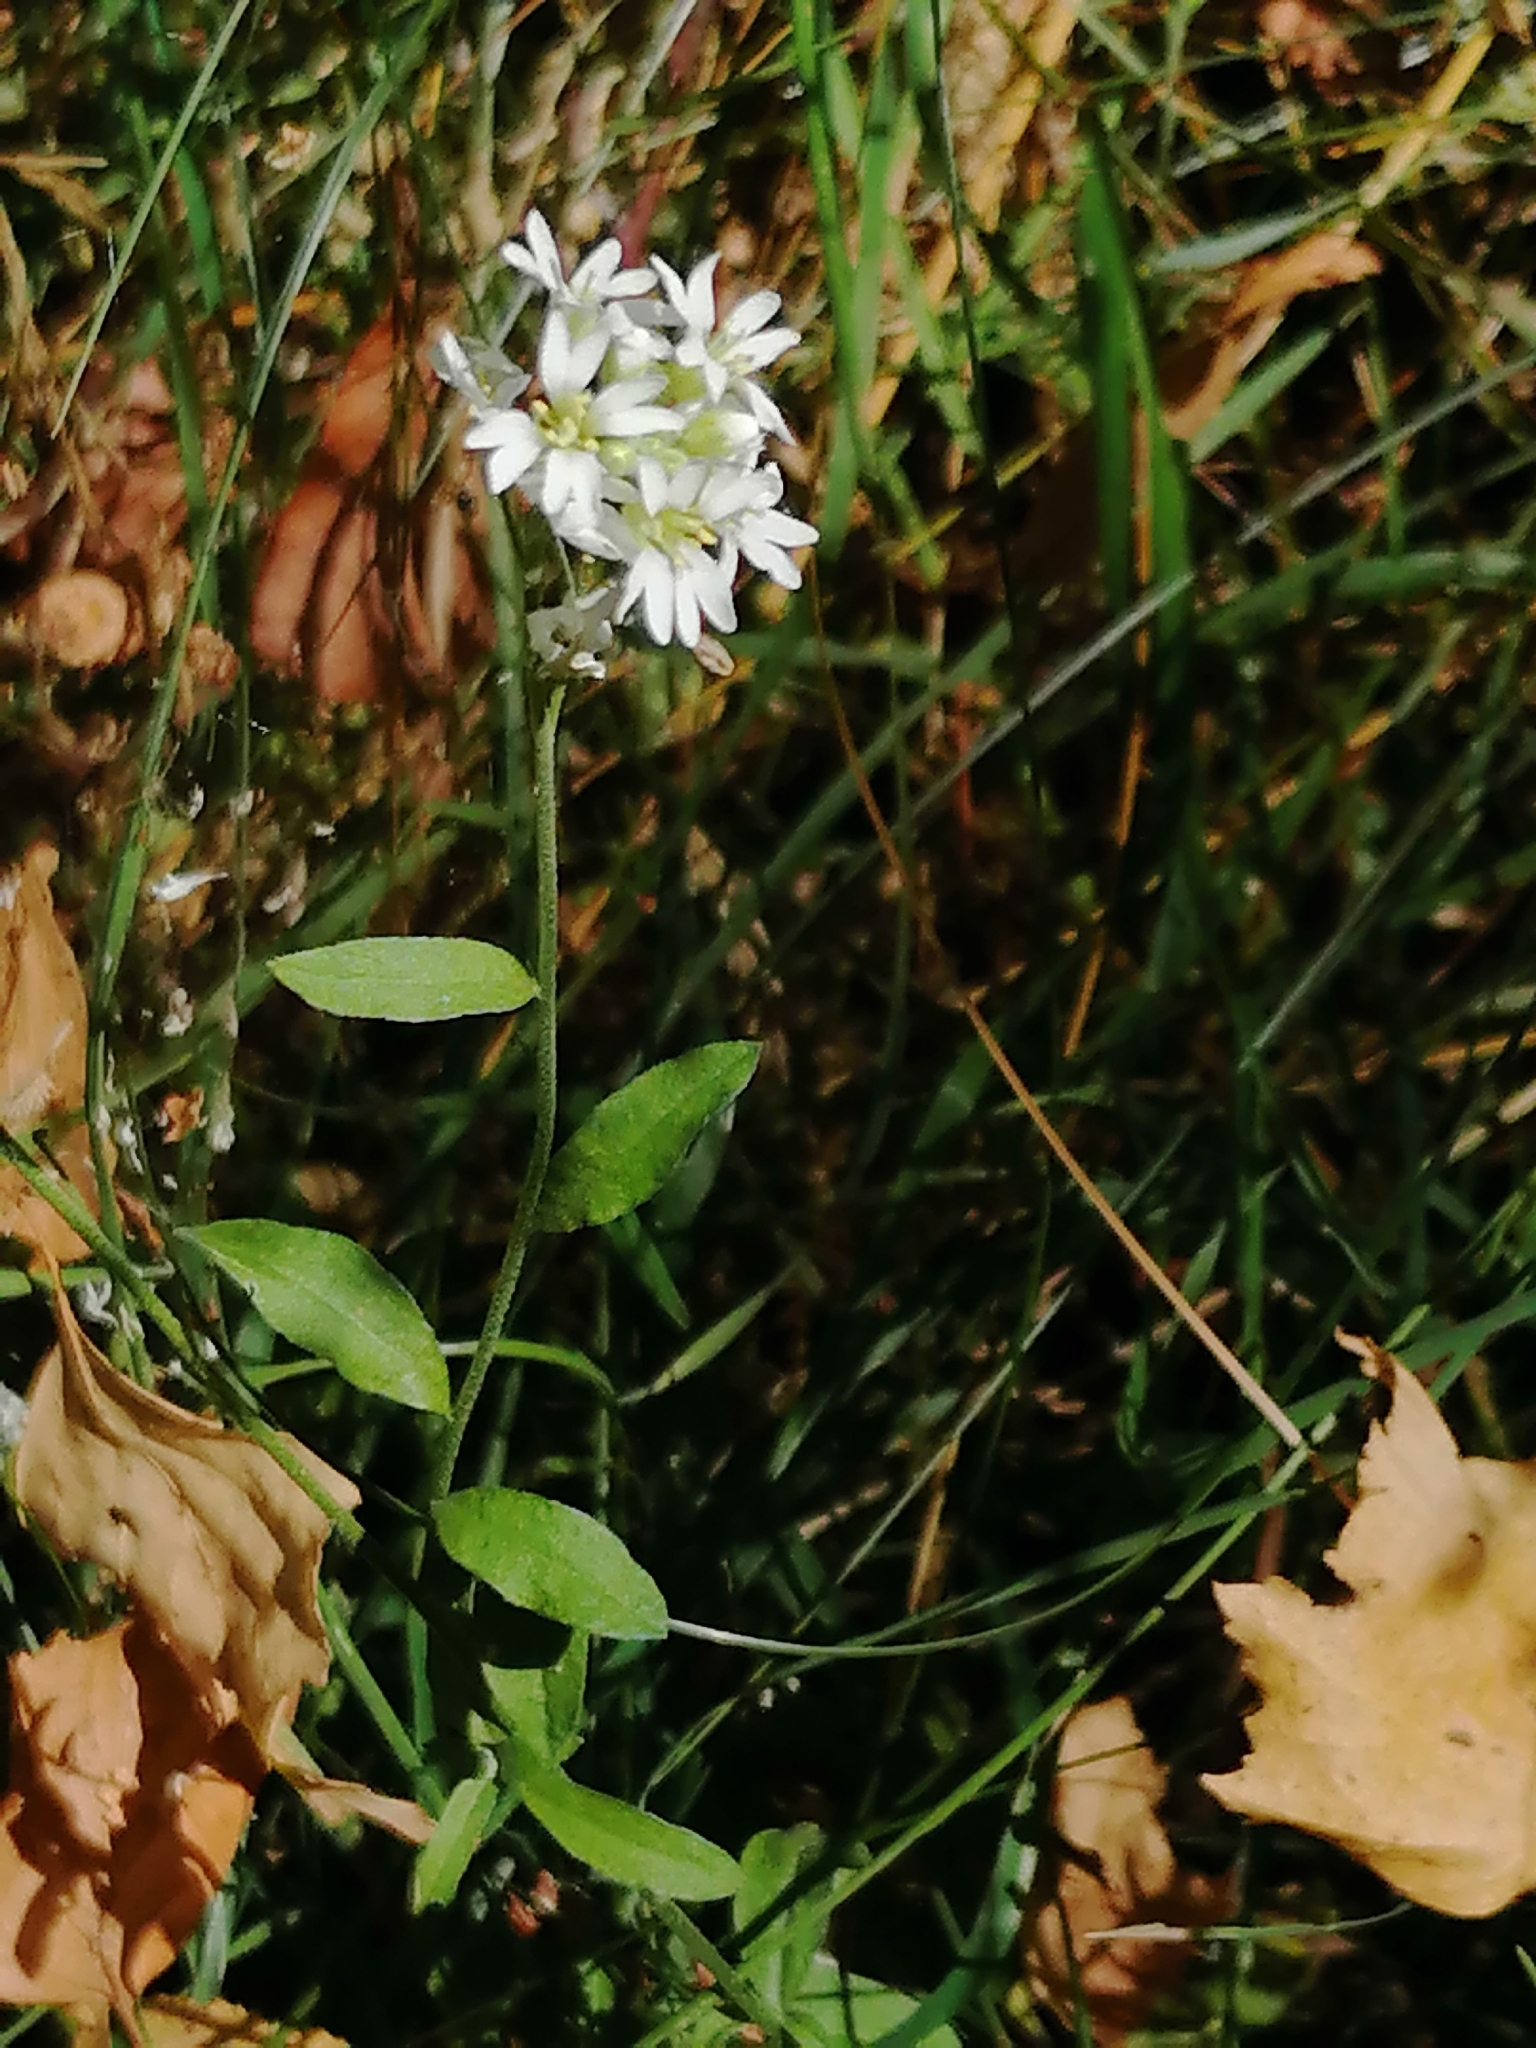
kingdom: Plantae
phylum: Tracheophyta
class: Magnoliopsida
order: Brassicales
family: Brassicaceae
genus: Berteroa
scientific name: Berteroa incana
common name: Hoary alison
